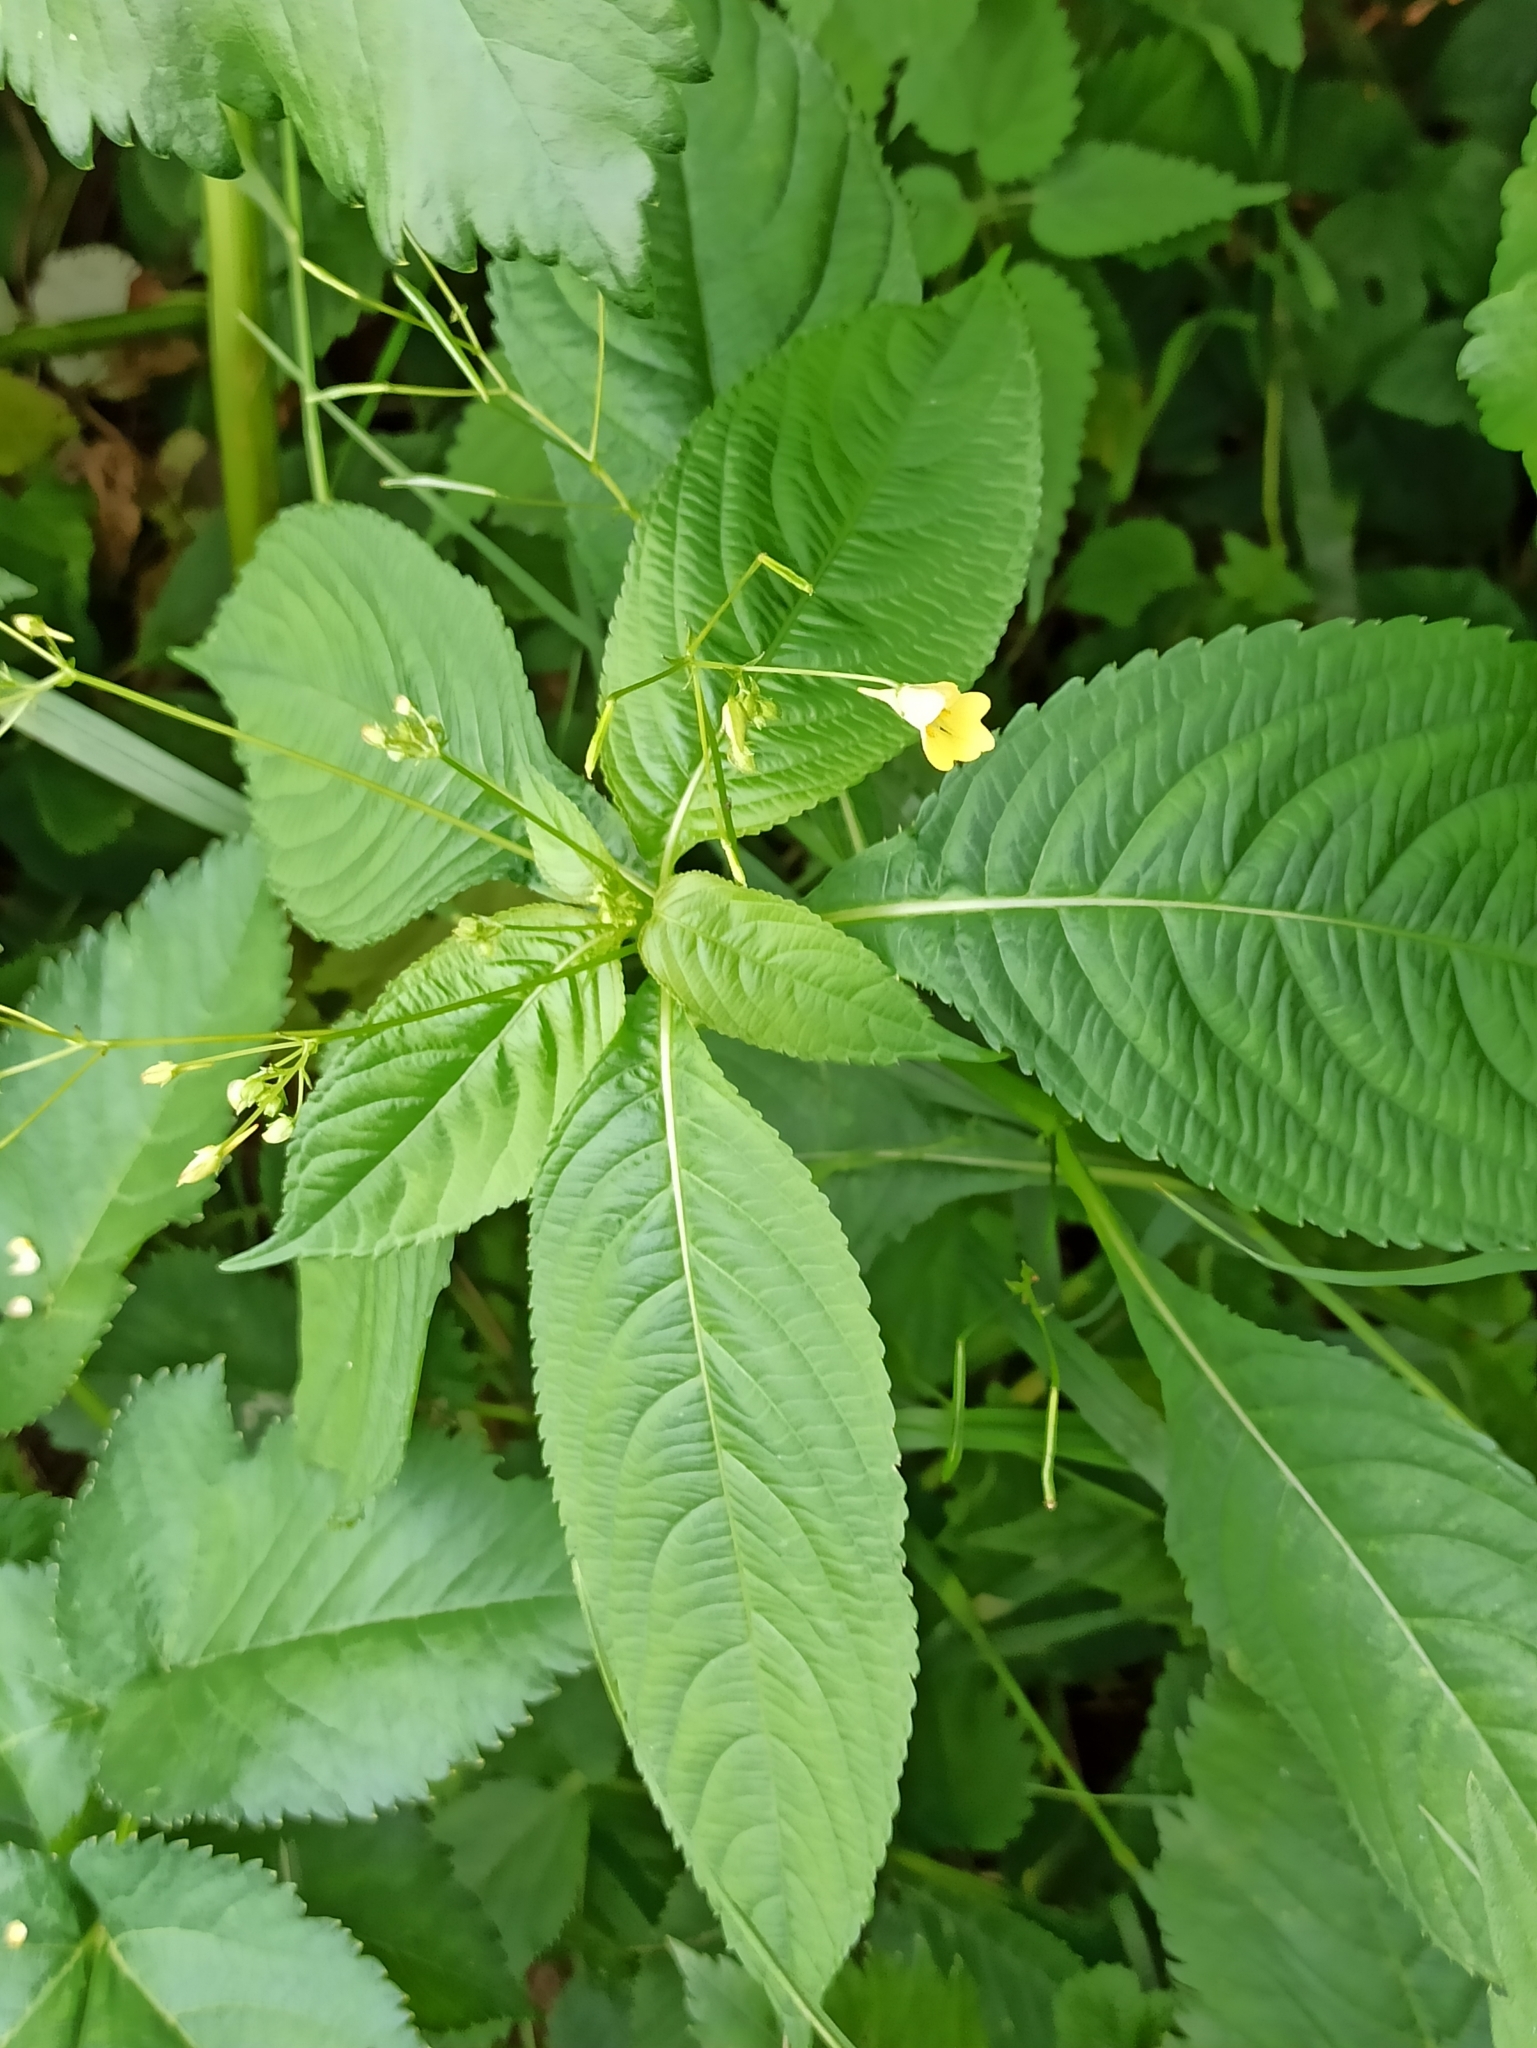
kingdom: Plantae
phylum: Tracheophyta
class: Magnoliopsida
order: Ericales
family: Balsaminaceae
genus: Impatiens
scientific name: Impatiens parviflora
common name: Small balsam
